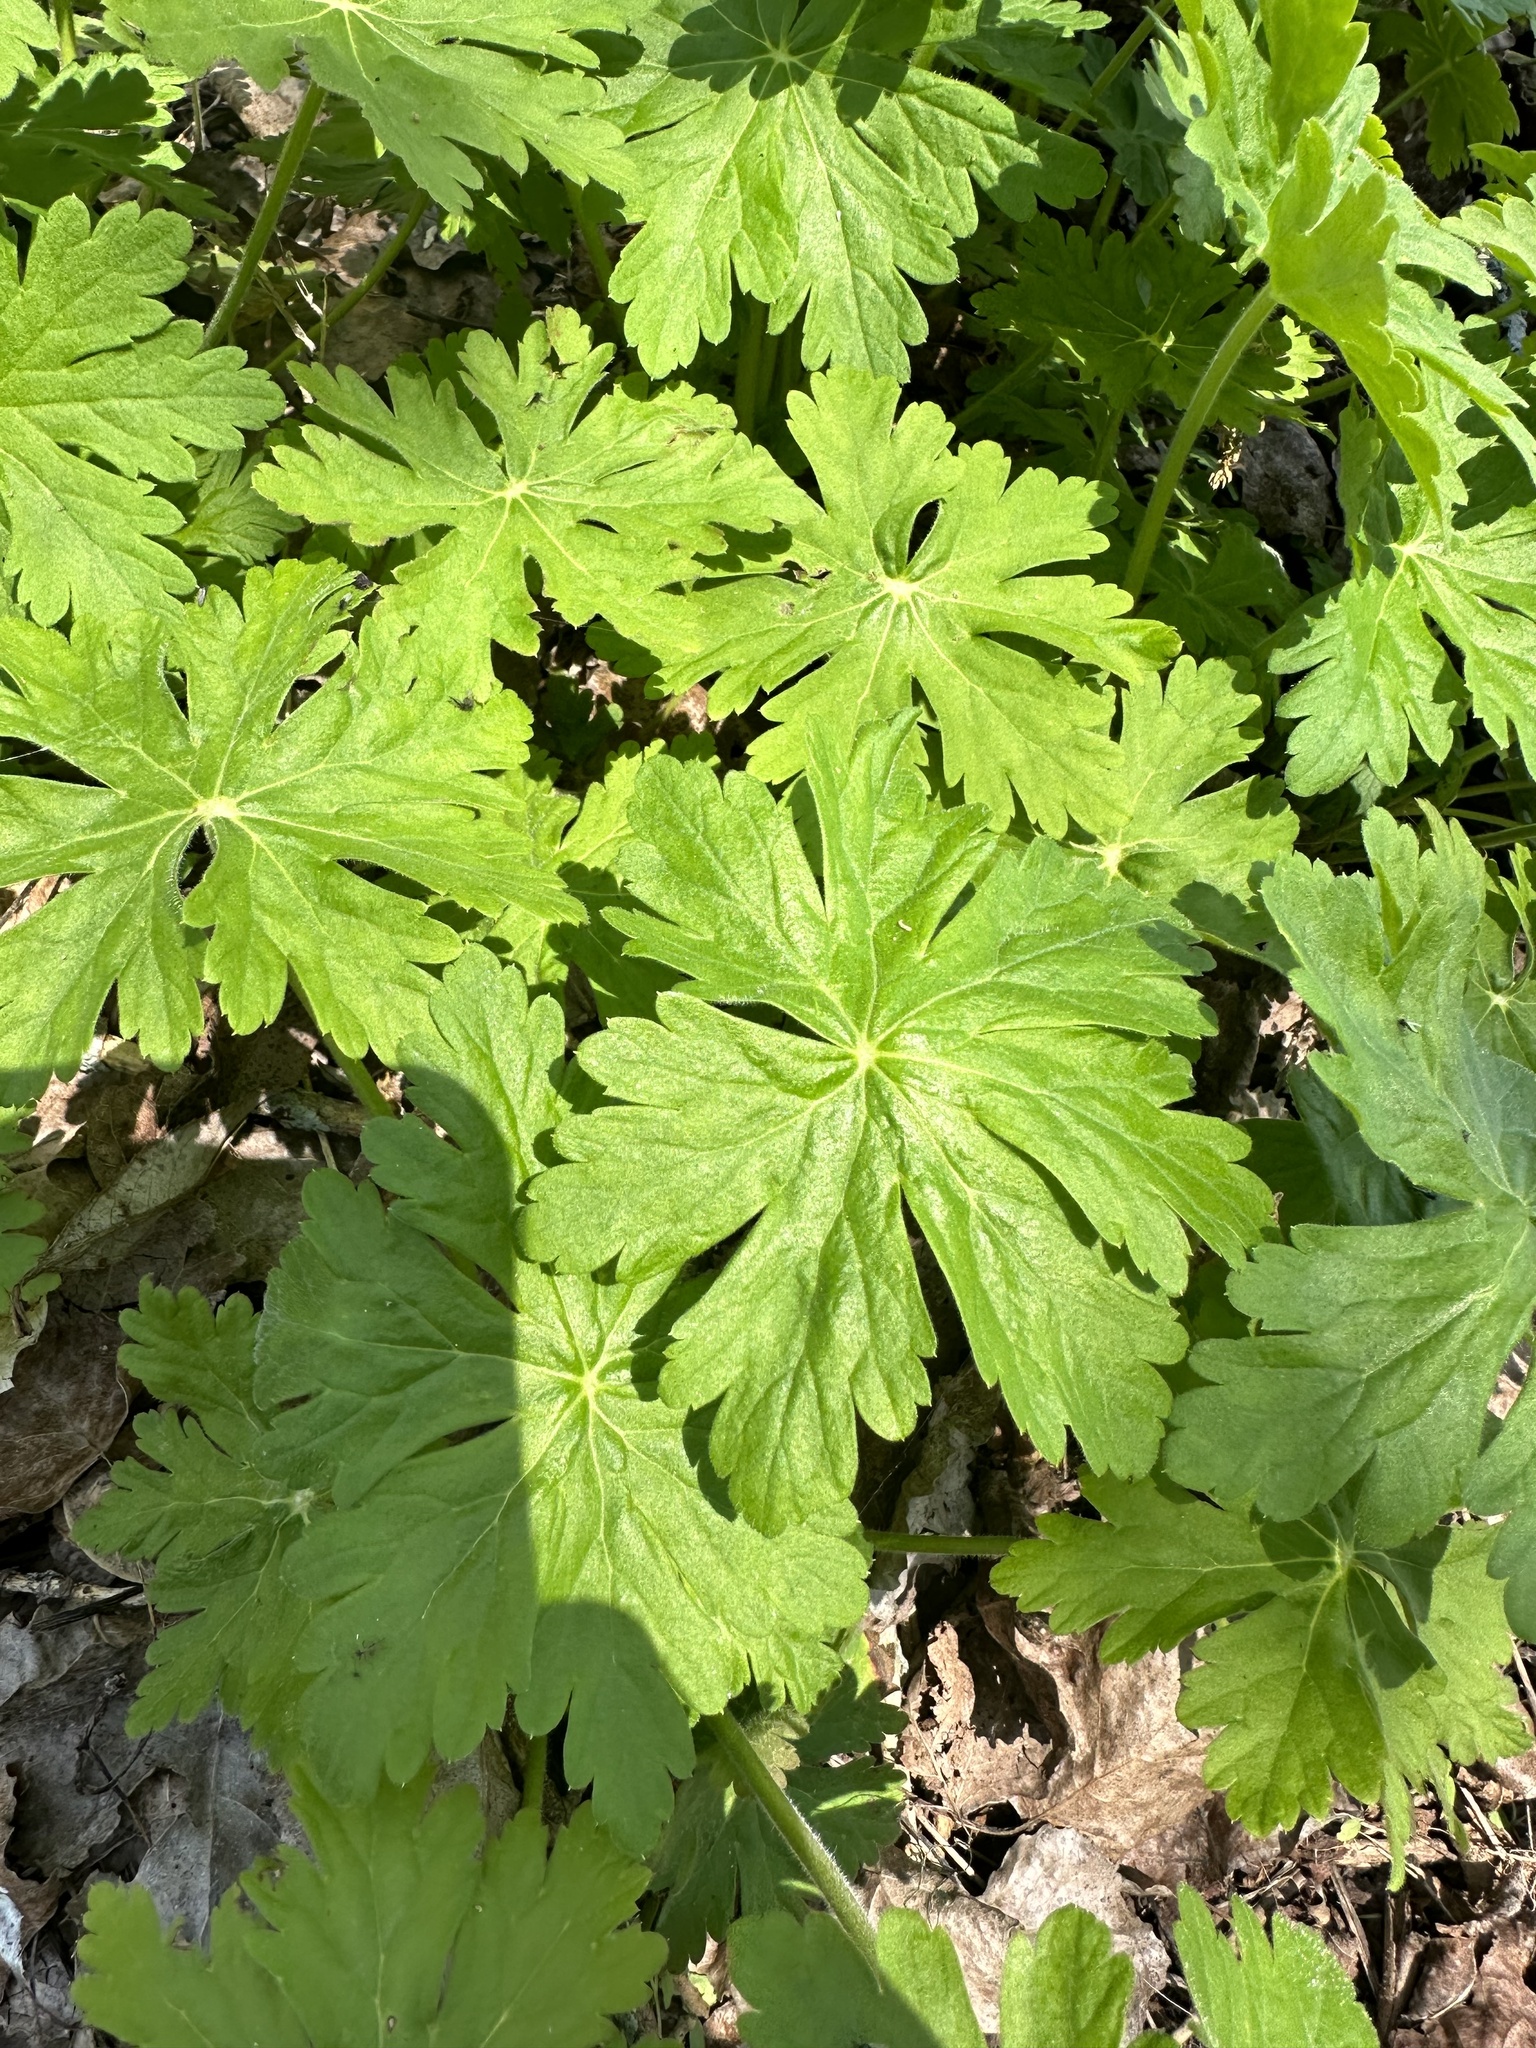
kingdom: Plantae
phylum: Tracheophyta
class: Magnoliopsida
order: Geraniales
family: Geraniaceae
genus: Geranium
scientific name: Geranium macrorrhizum
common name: Rock crane's-bill
